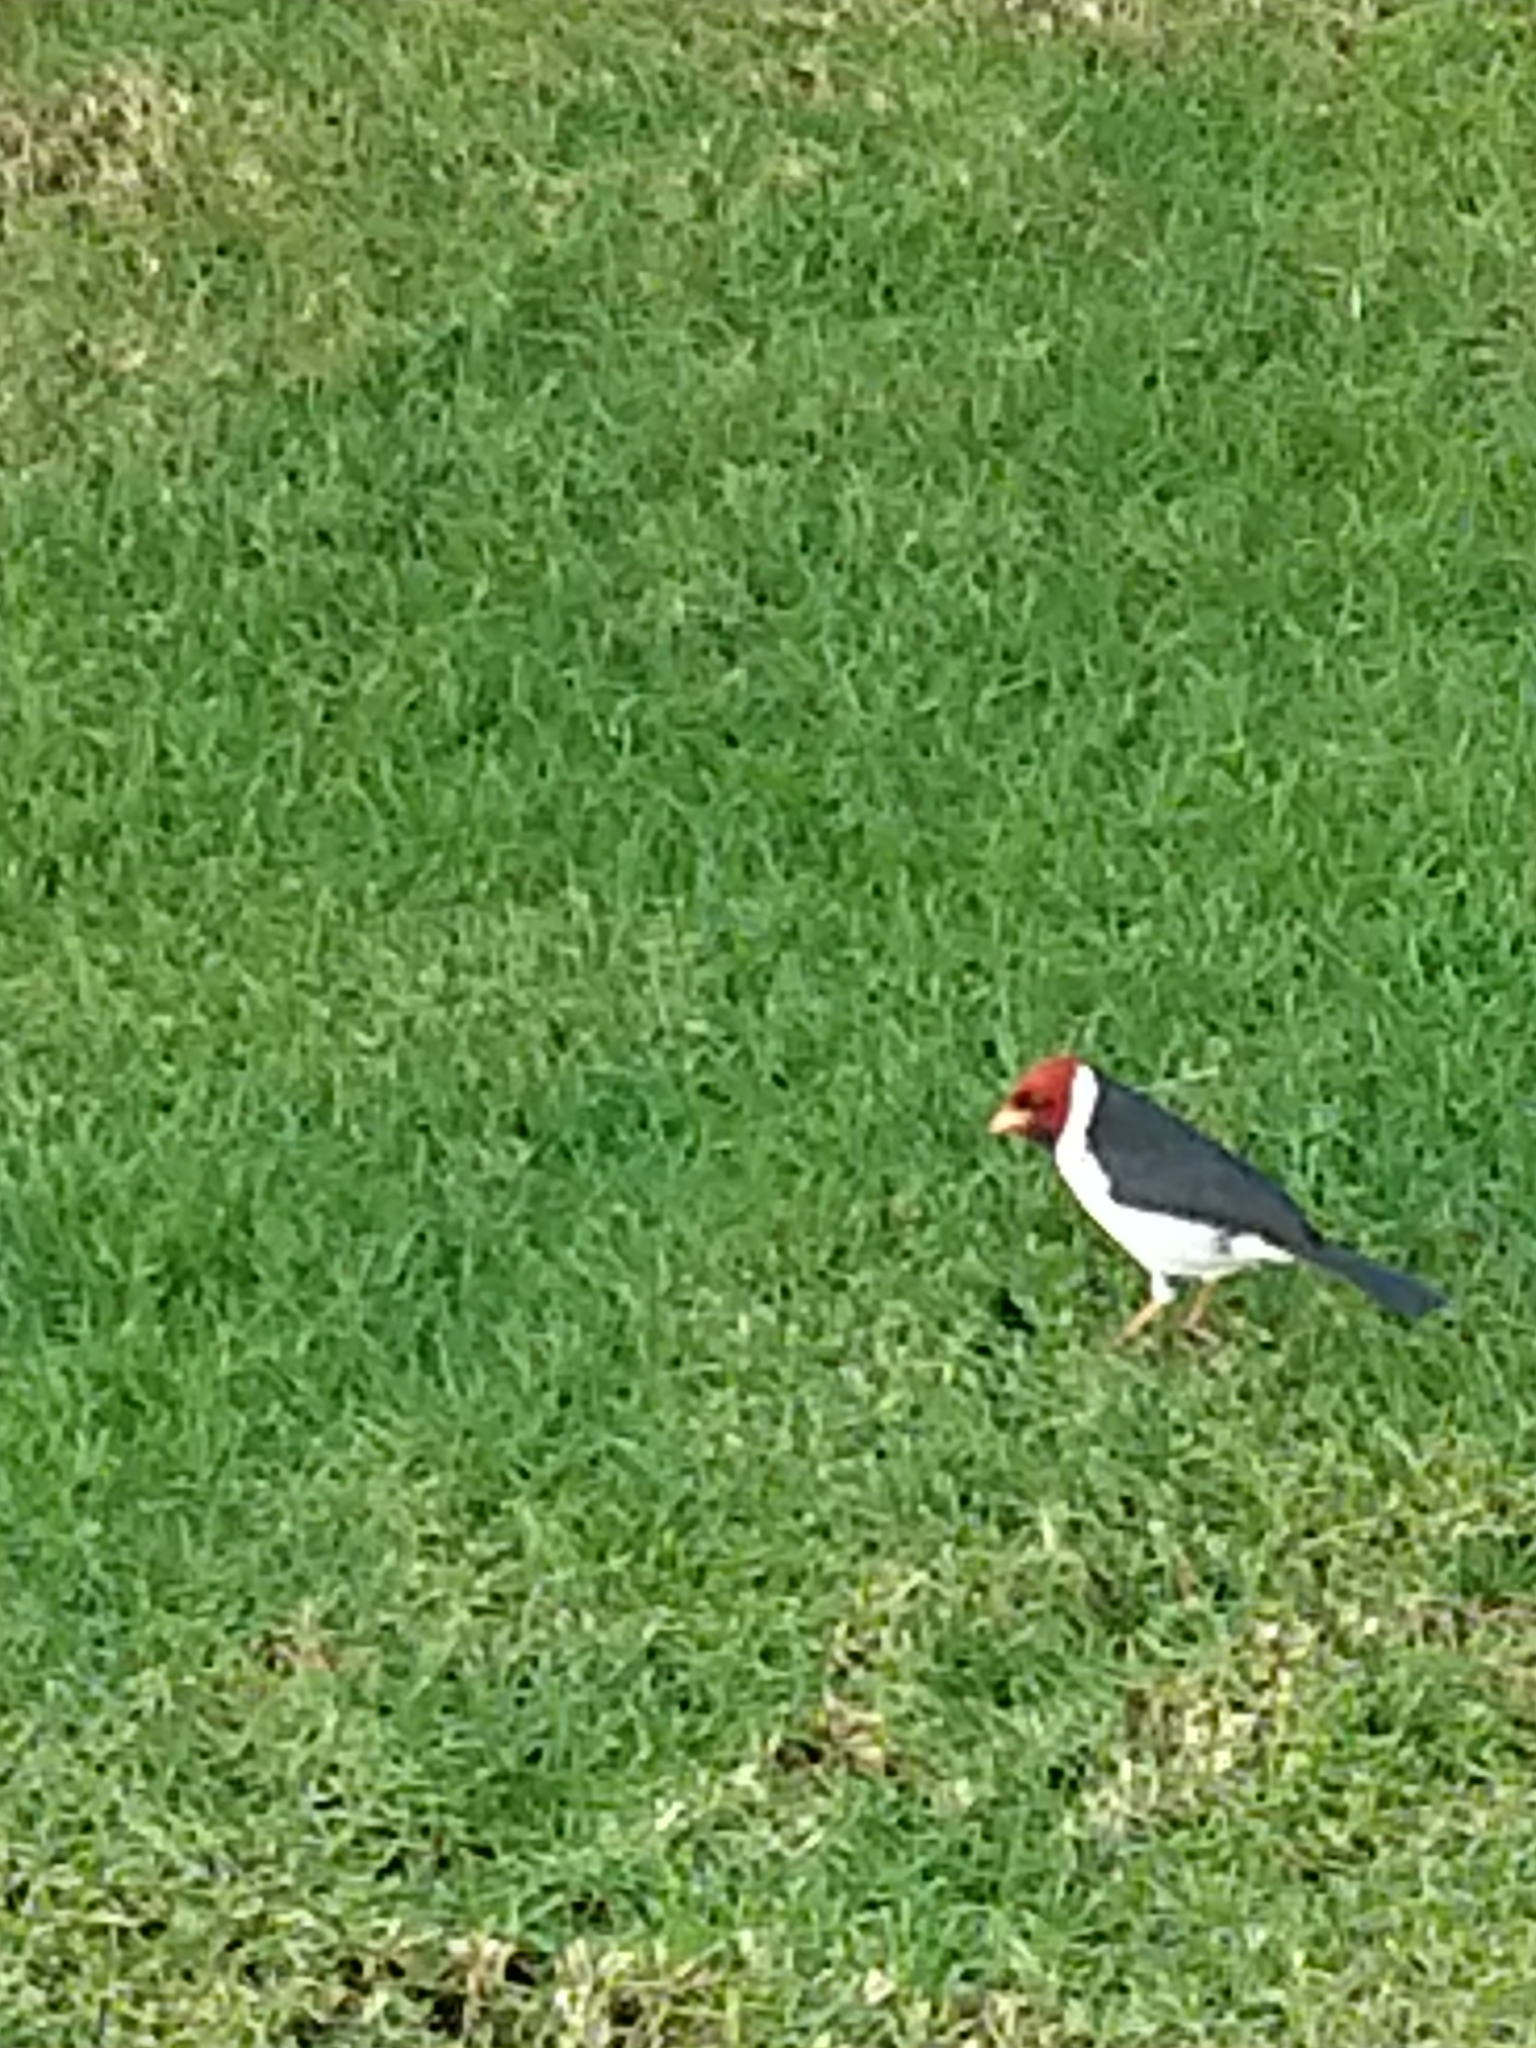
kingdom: Animalia
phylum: Chordata
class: Aves
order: Passeriformes
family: Thraupidae
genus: Paroaria
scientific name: Paroaria capitata
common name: Yellow-billed cardinal
